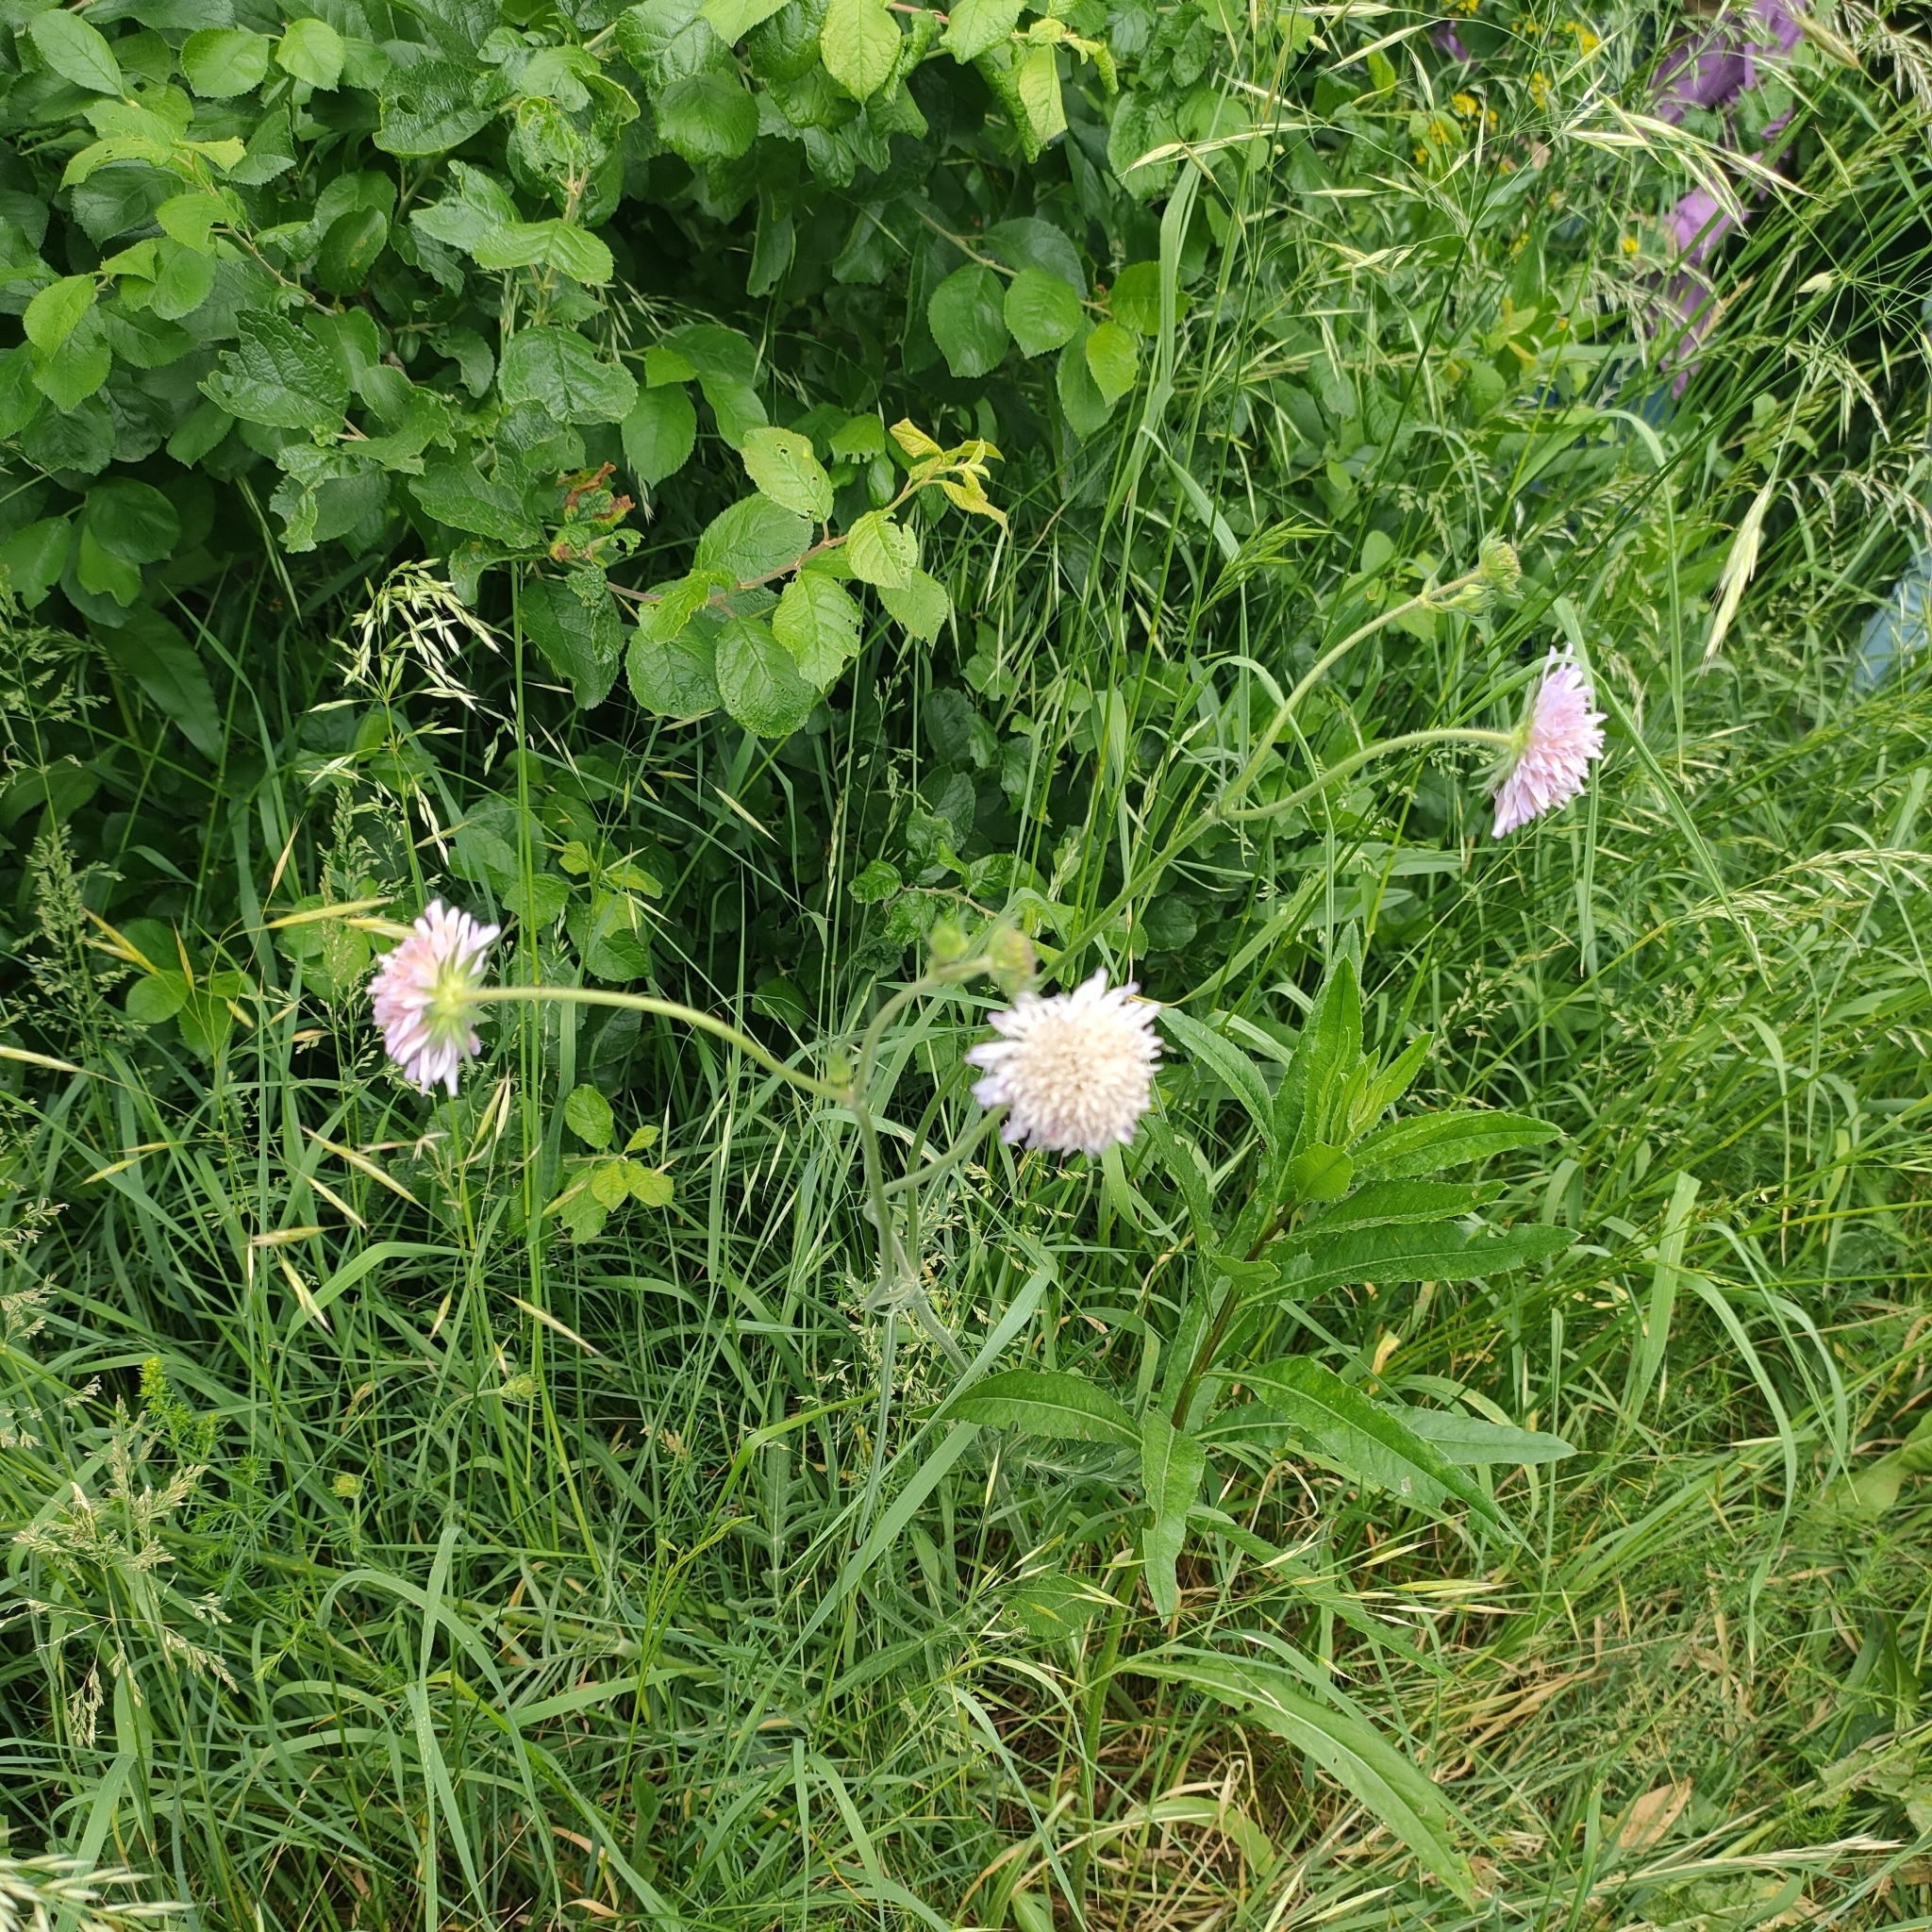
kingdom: Plantae
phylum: Tracheophyta
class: Magnoliopsida
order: Dipsacales
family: Caprifoliaceae
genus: Knautia
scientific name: Knautia arvensis
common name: Field scabiosa
